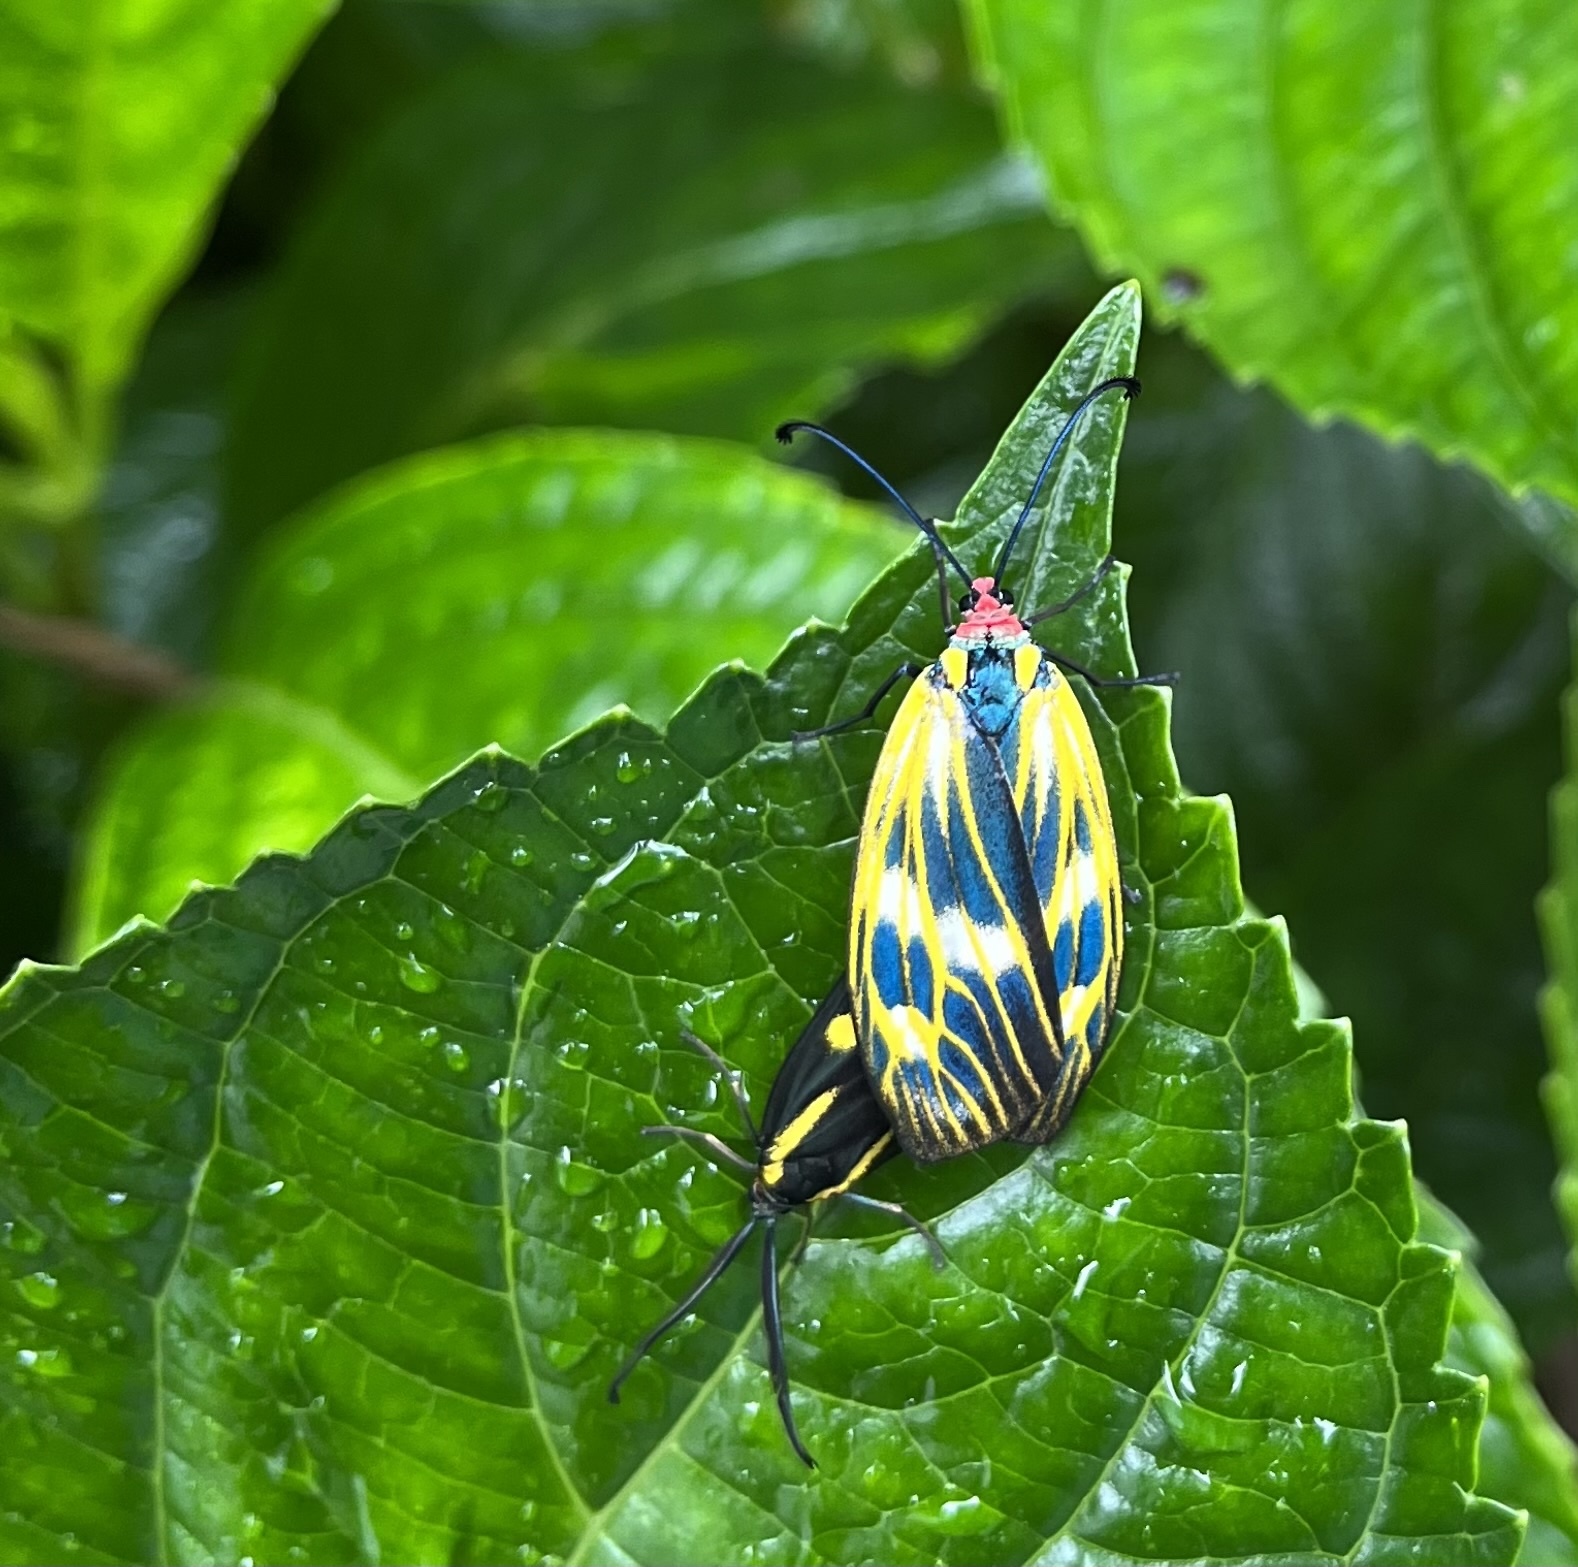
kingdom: Animalia
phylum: Arthropoda
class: Insecta
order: Lepidoptera
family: Zygaenidae
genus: Soritia
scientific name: Soritia strandi
